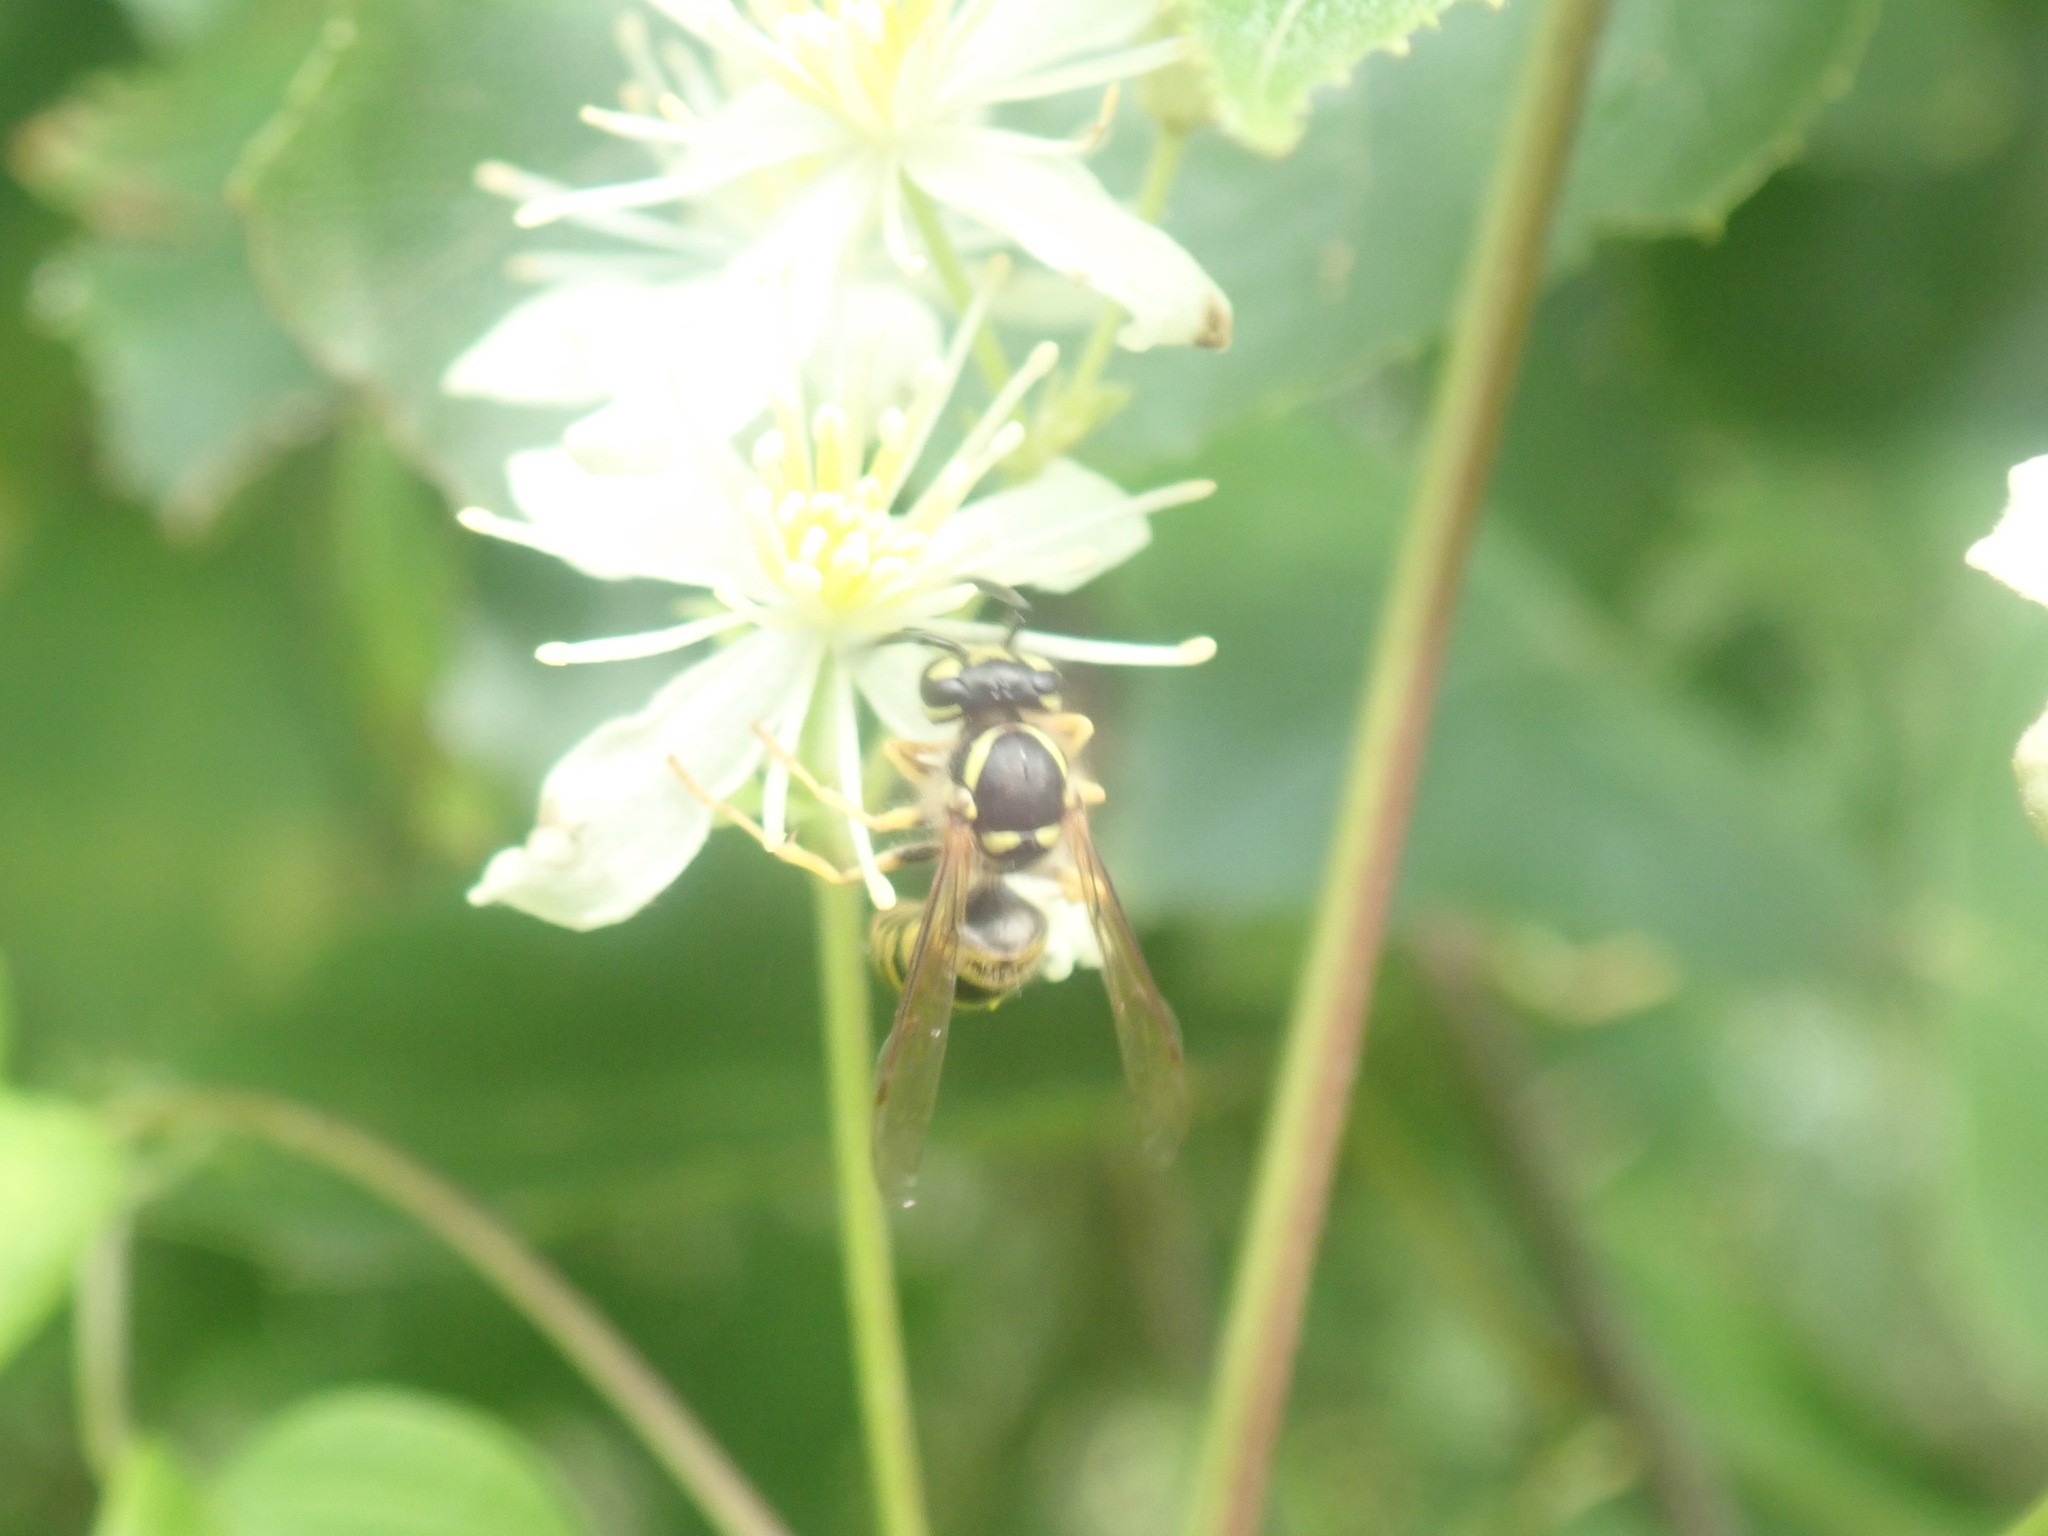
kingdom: Animalia
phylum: Arthropoda
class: Insecta
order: Hymenoptera
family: Vespidae
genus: Vespula
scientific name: Vespula maculifrons
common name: Eastern yellowjacket
